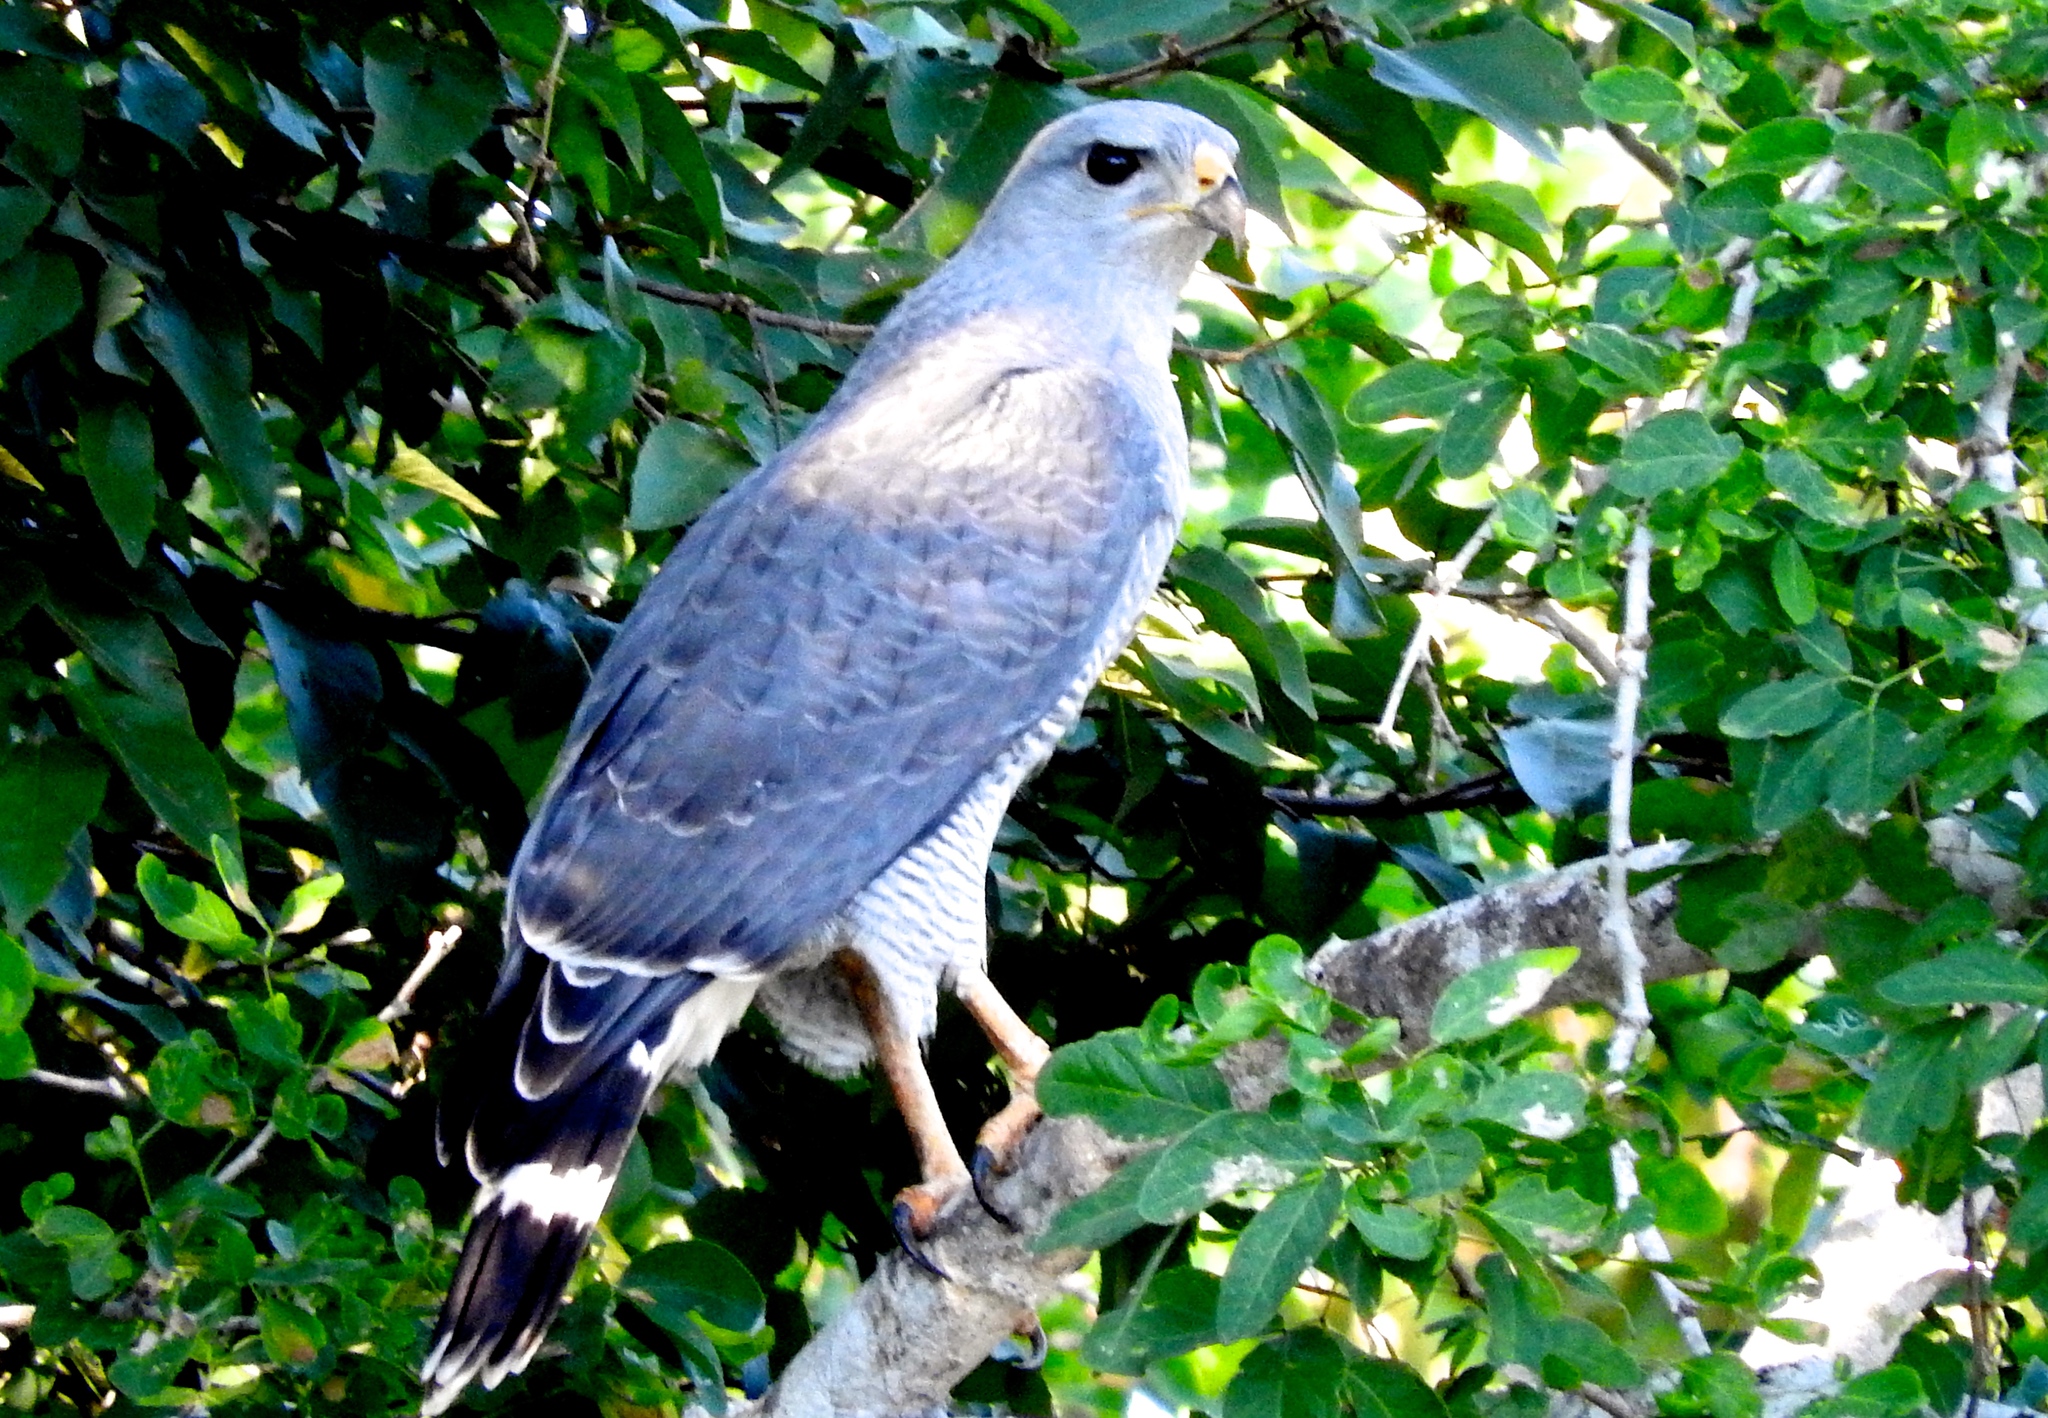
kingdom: Animalia
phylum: Chordata
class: Aves
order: Accipitriformes
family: Accipitridae
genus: Buteo
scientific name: Buteo nitidus
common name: Grey-lined hawk
